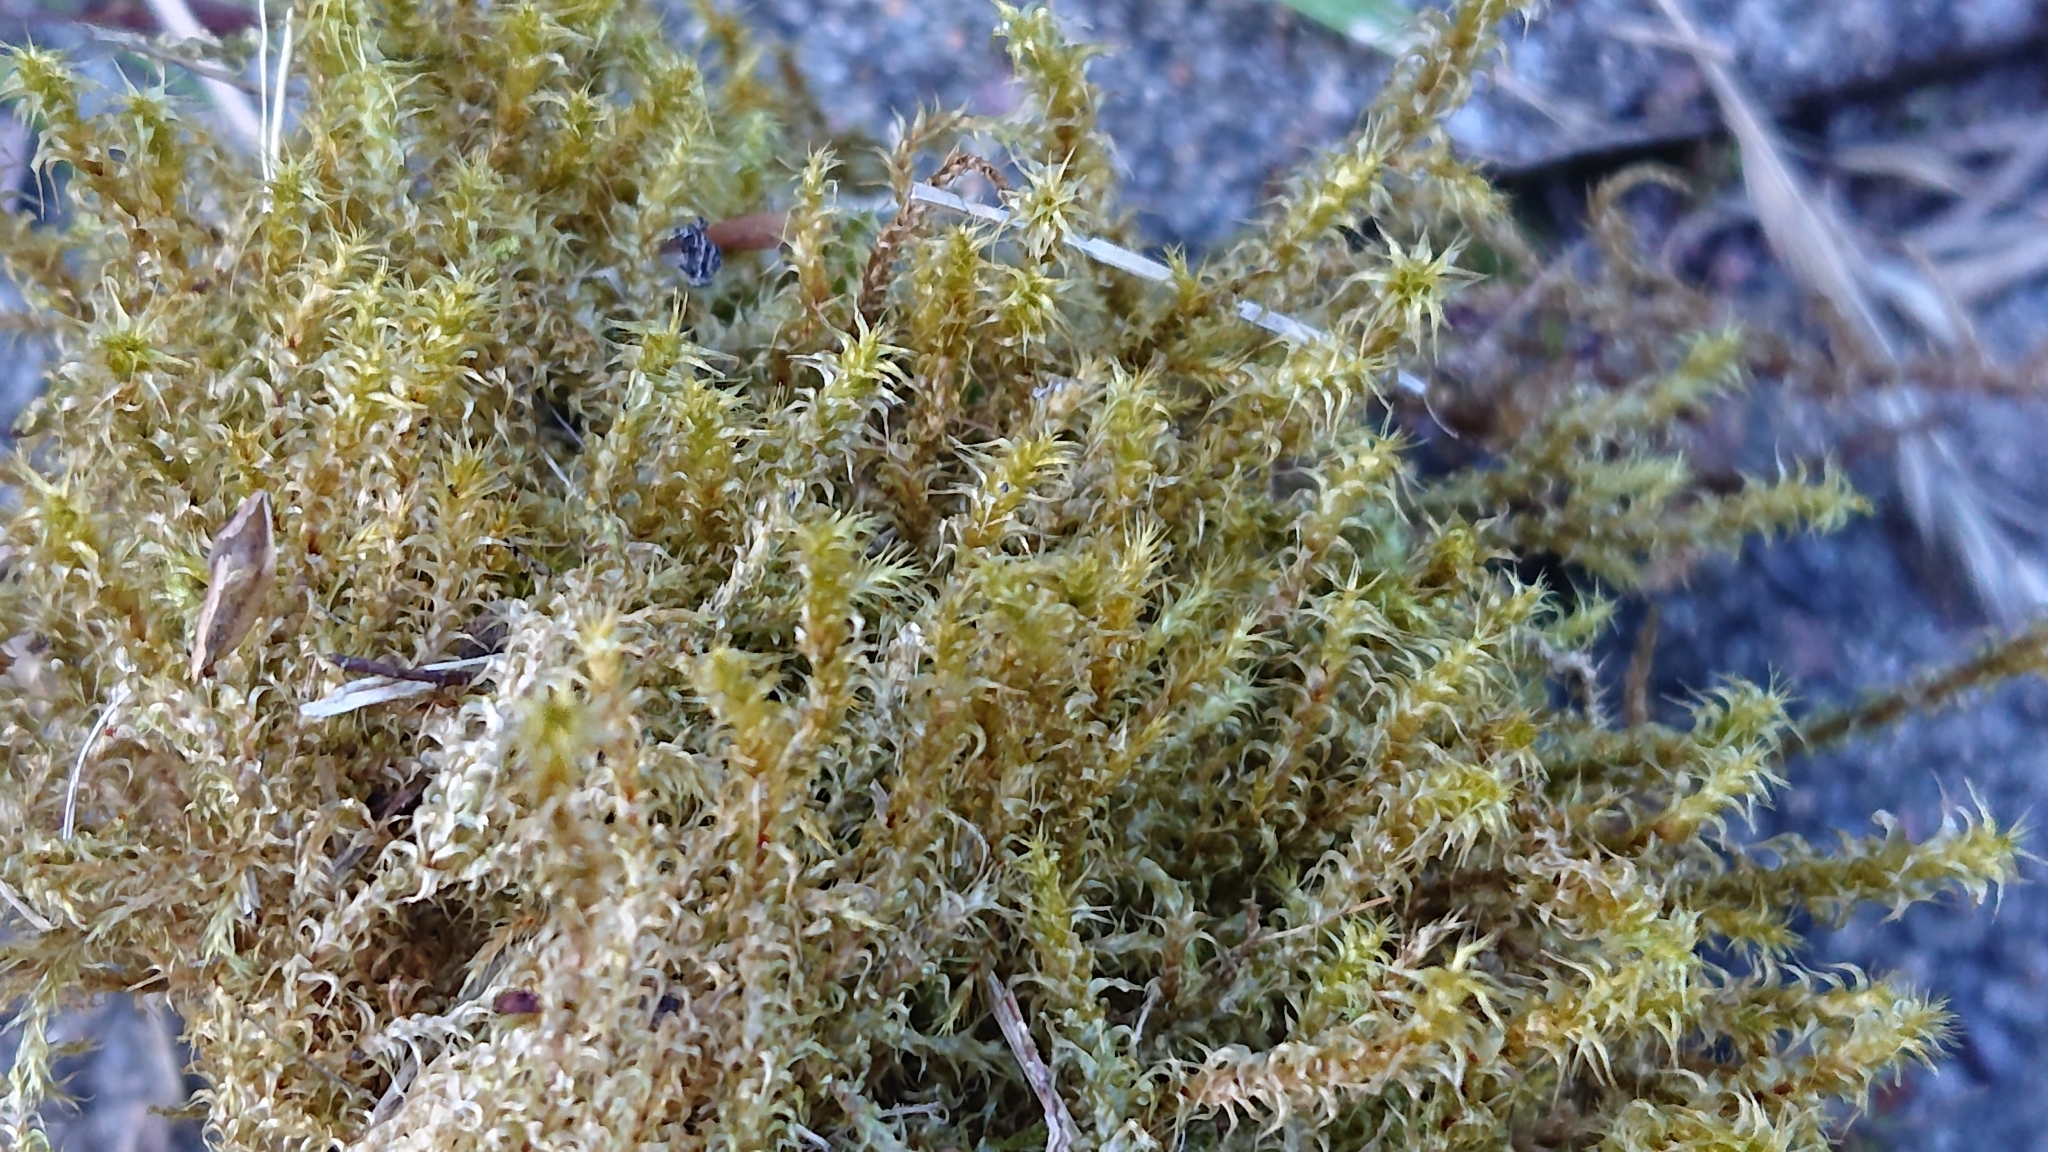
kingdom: Plantae
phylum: Bryophyta
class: Bryopsida
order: Hypnales
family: Hylocomiaceae
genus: Rhytidiadelphus
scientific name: Rhytidiadelphus squarrosus
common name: Springy turf-moss
